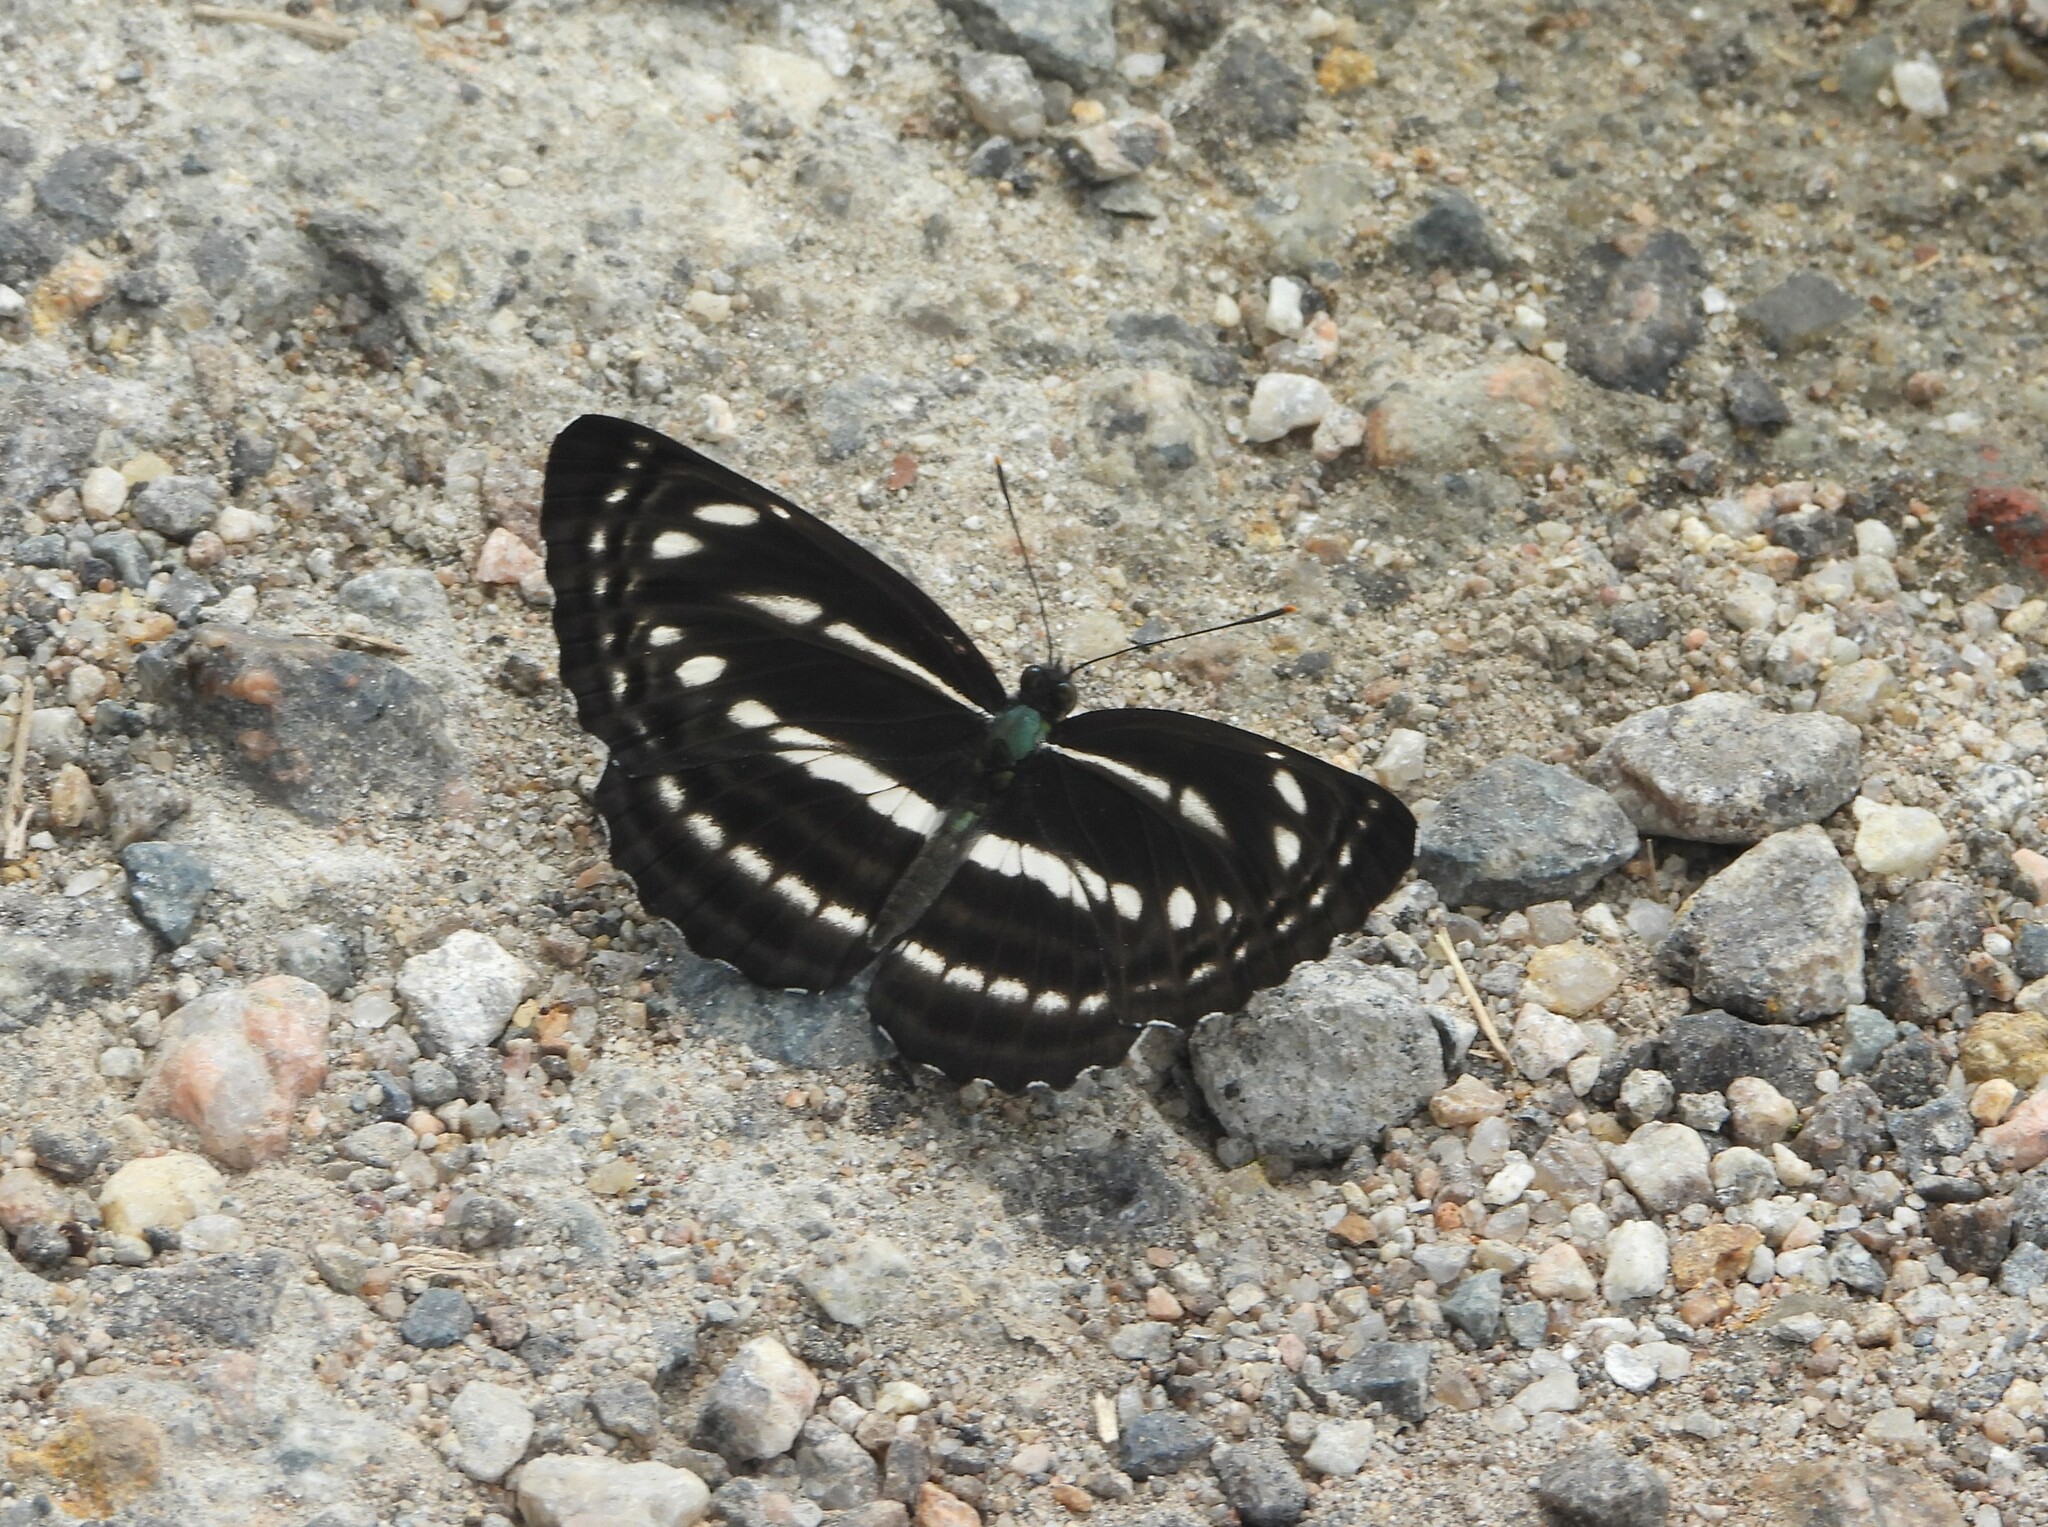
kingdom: Animalia
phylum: Arthropoda
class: Insecta
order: Lepidoptera
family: Nymphalidae
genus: Neptis
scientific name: Neptis nata
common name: Sullied brown sailer
